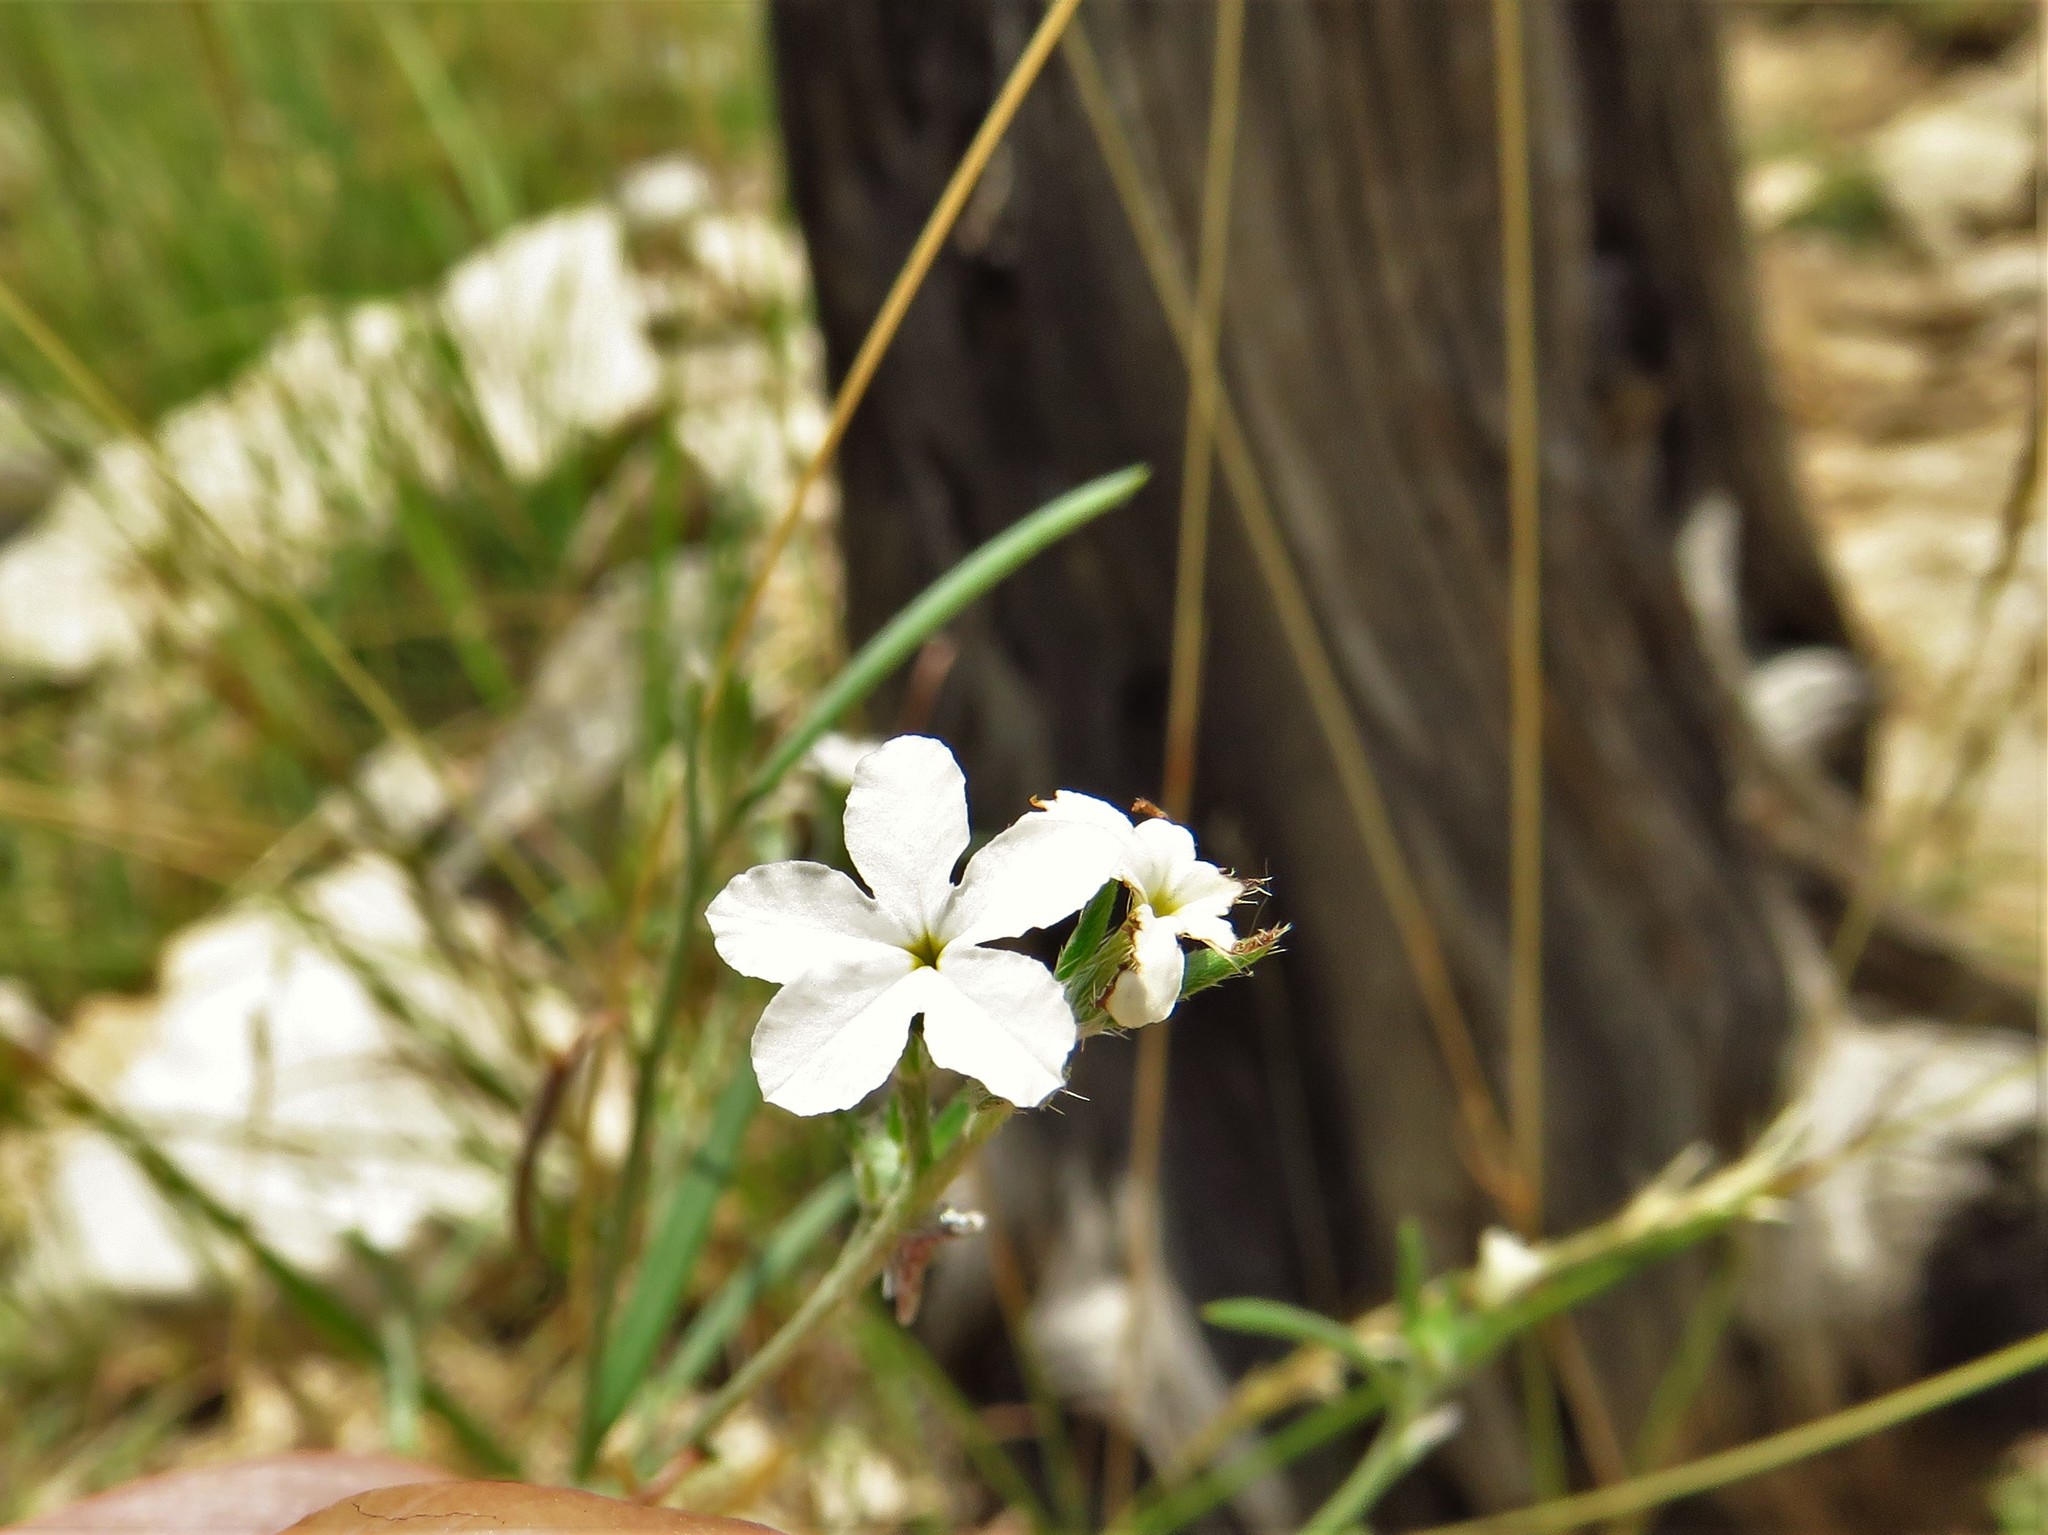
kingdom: Plantae
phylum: Tracheophyta
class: Magnoliopsida
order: Boraginales
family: Heliotropiaceae
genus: Euploca
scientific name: Euploca tenella
